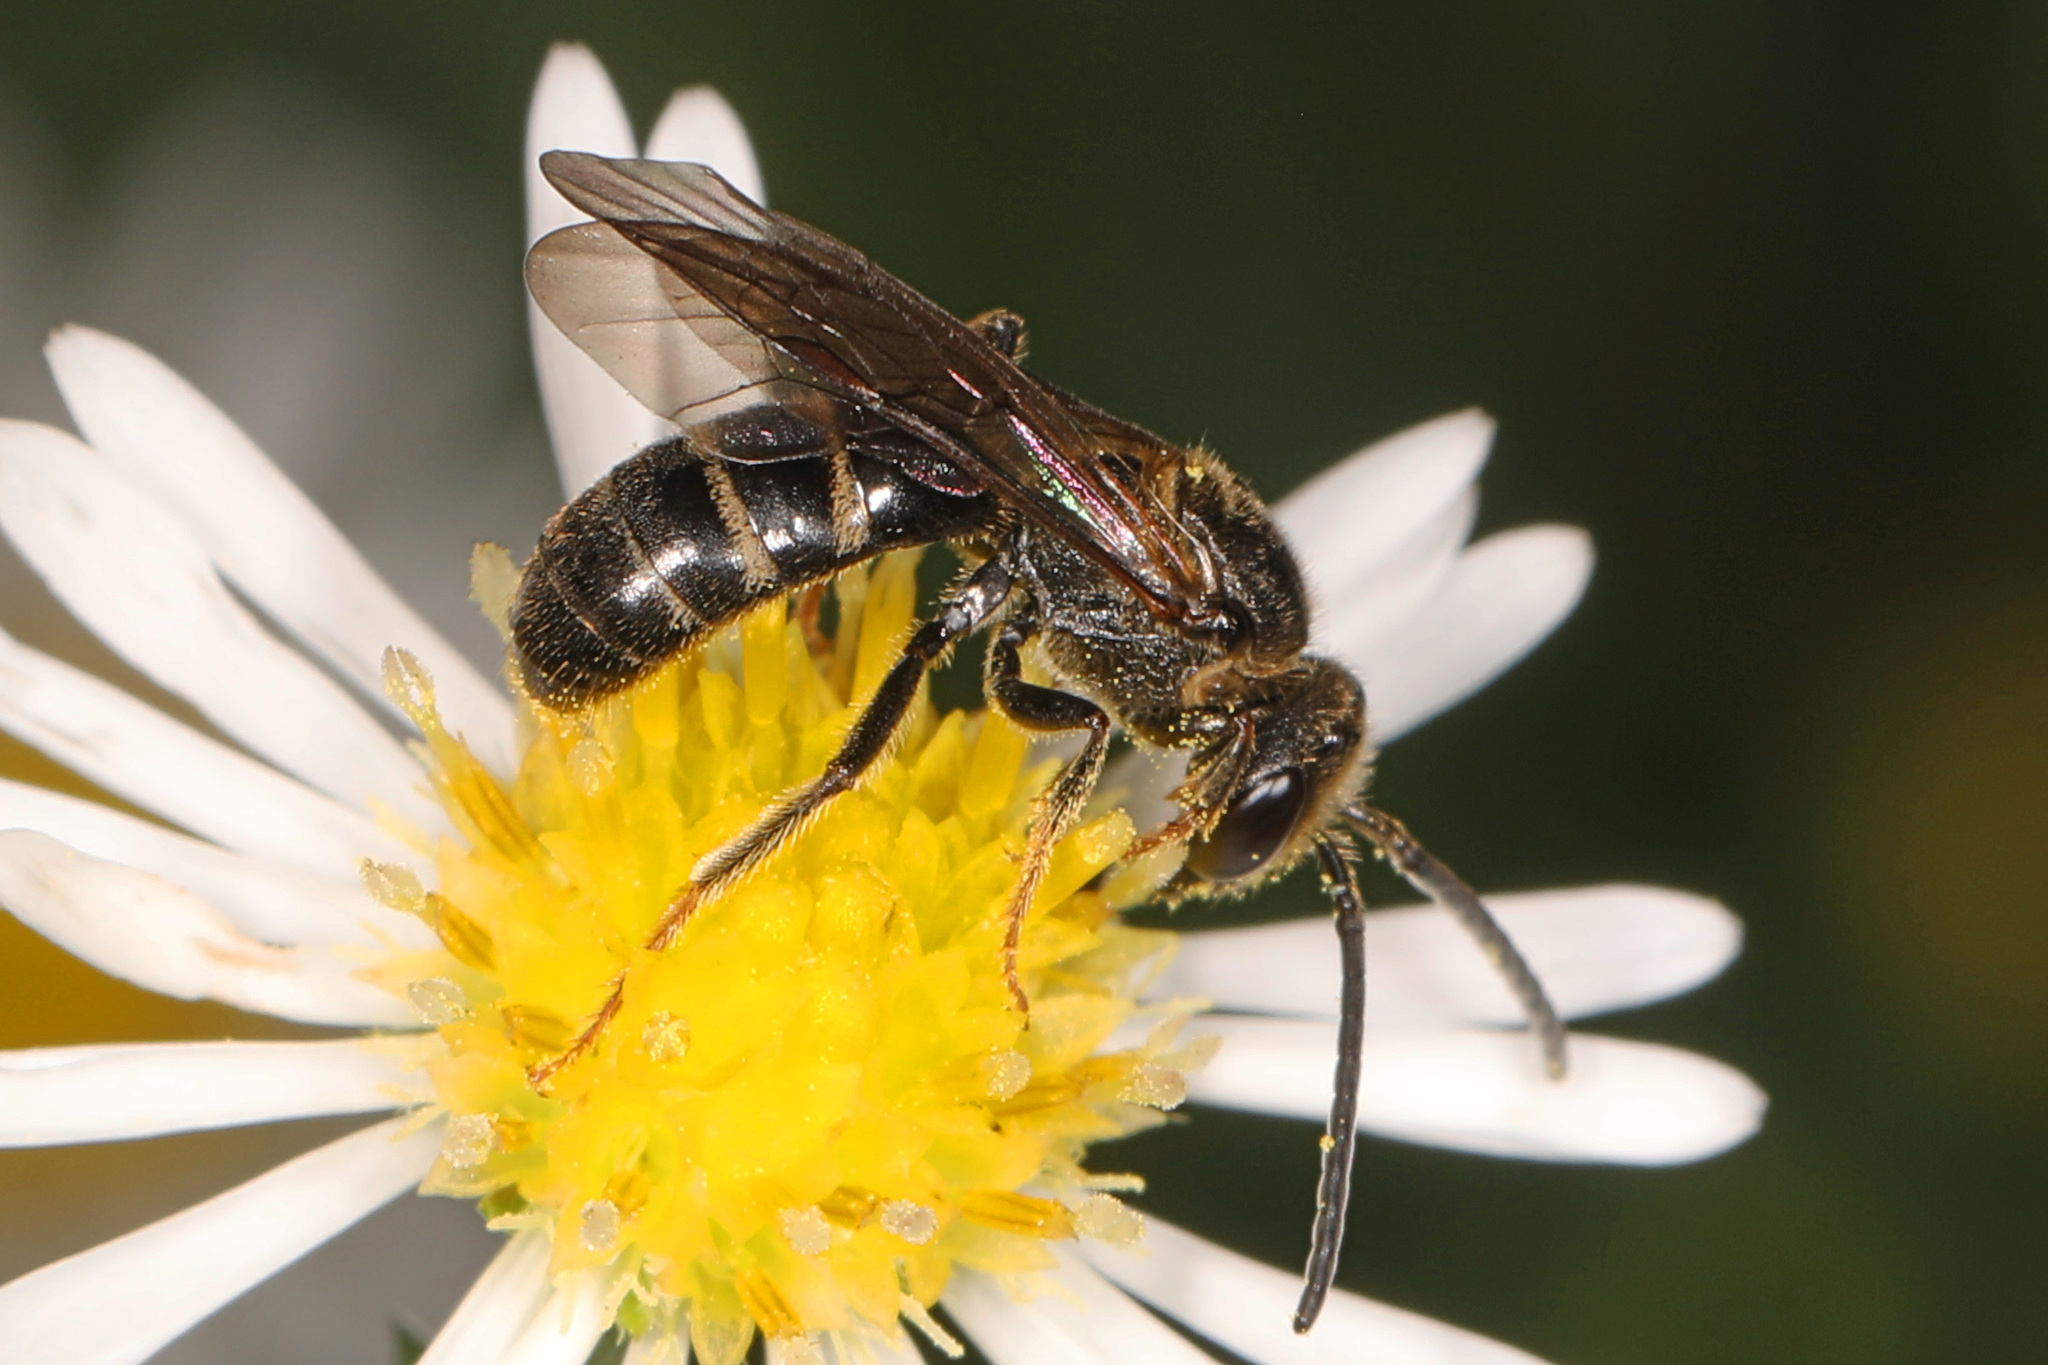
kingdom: Animalia
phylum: Arthropoda
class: Insecta
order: Hymenoptera
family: Halictidae
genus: Lasioglossum
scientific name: Lasioglossum fuscipenne
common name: Brown-winged sweat bee
